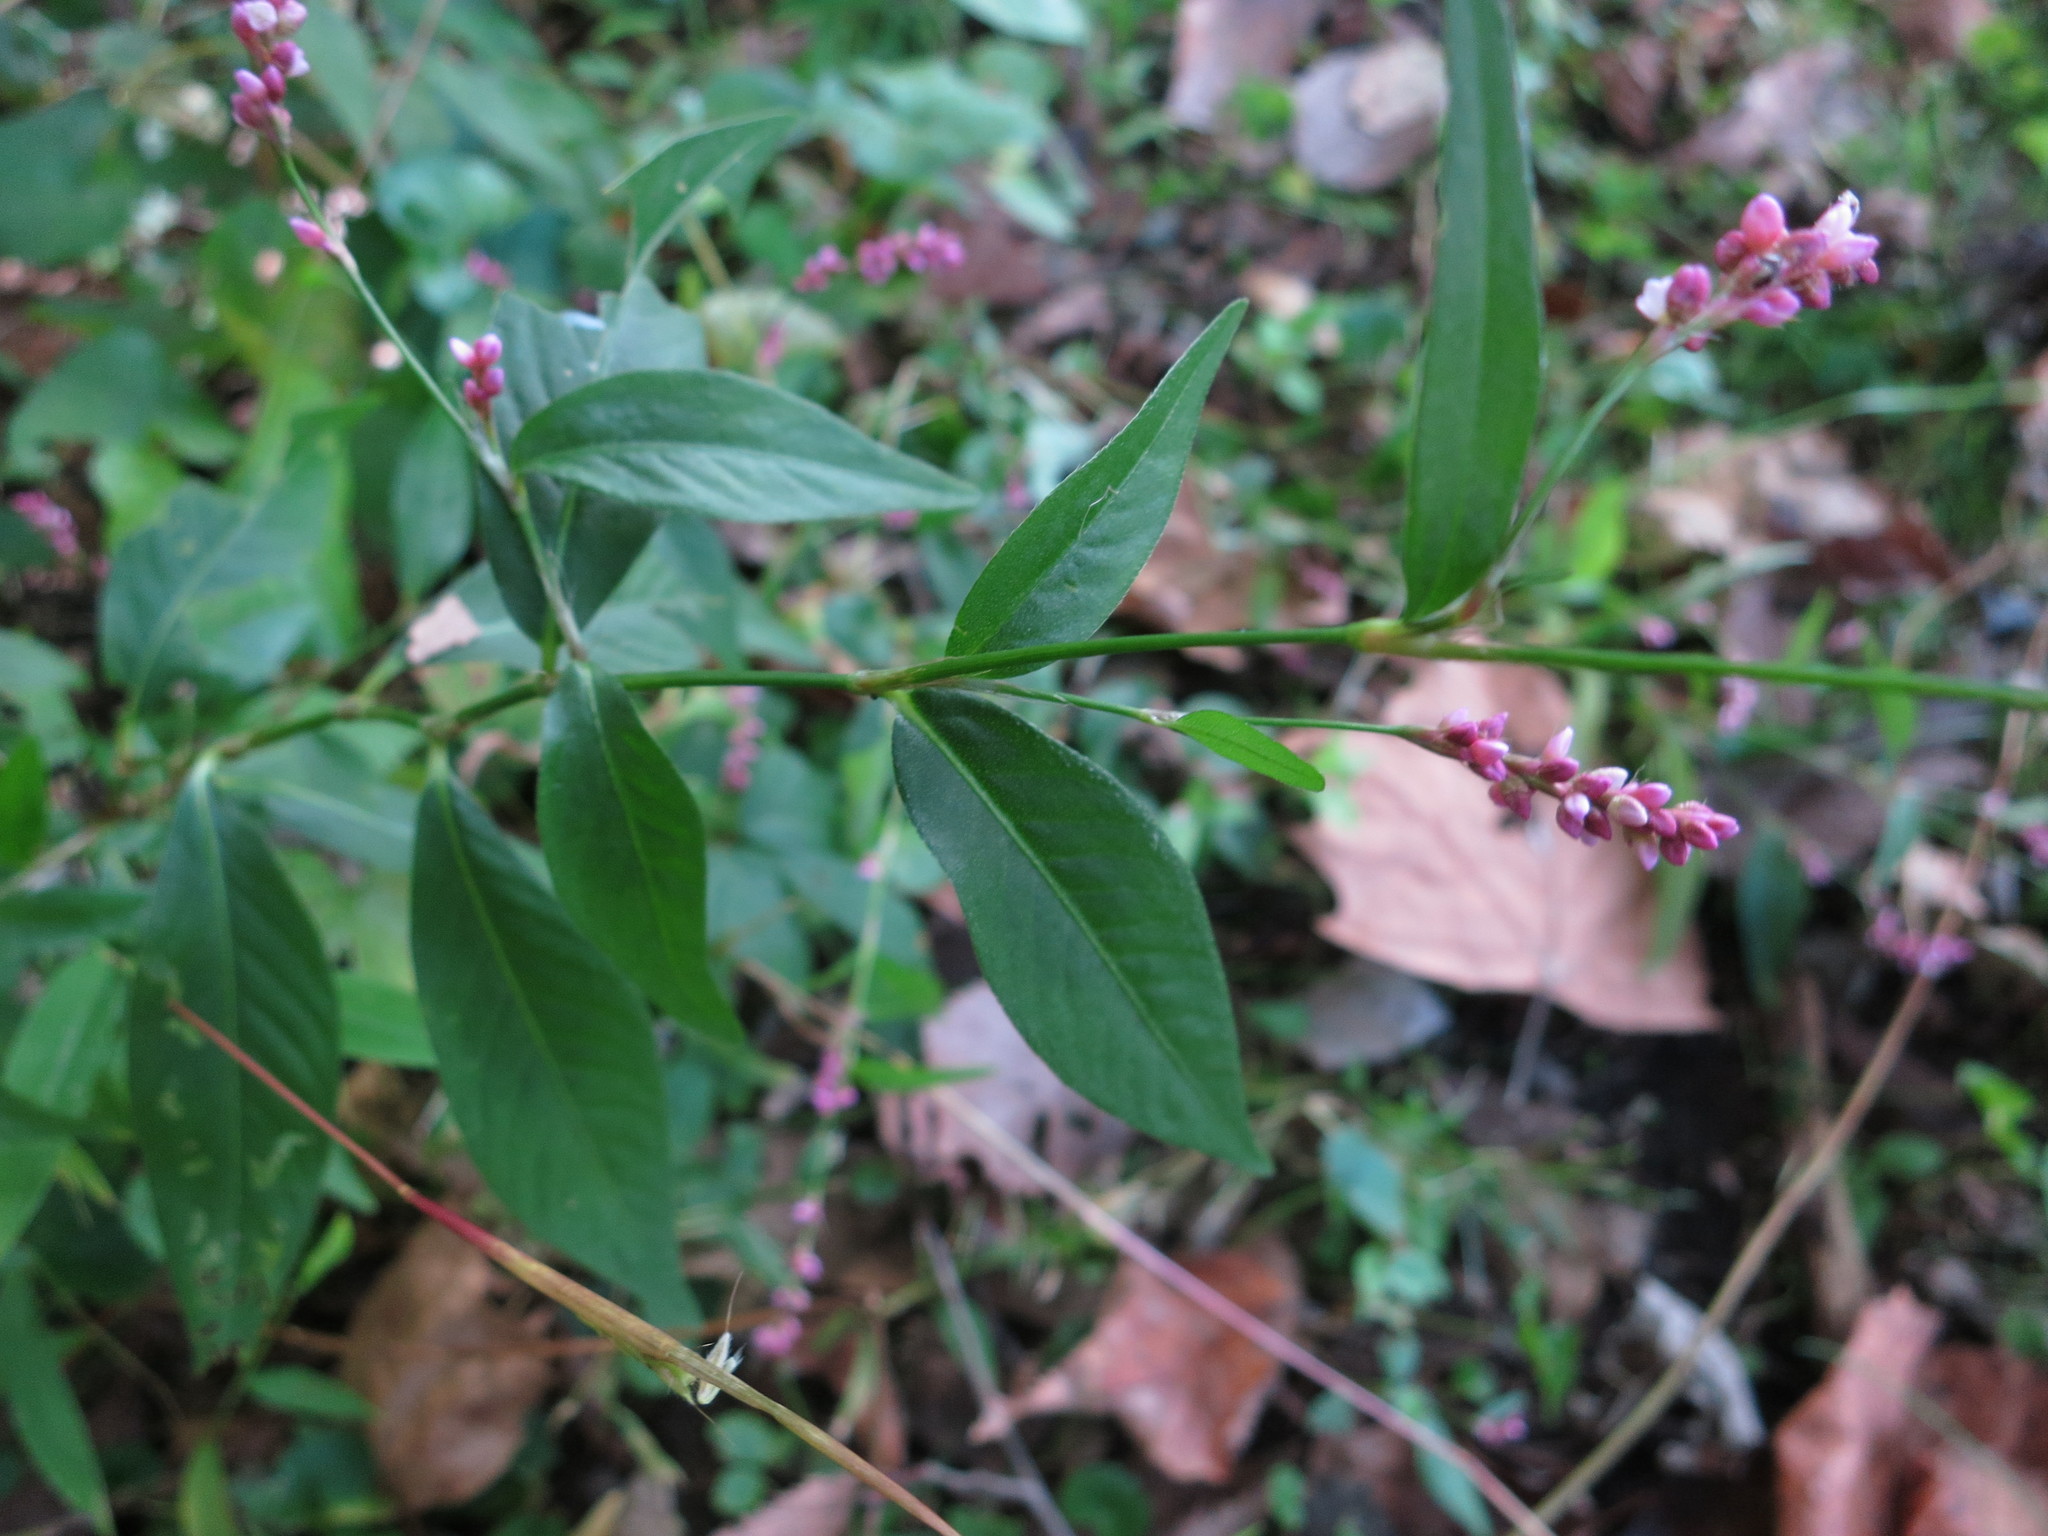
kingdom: Plantae
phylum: Tracheophyta
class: Magnoliopsida
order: Caryophyllales
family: Polygonaceae
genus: Persicaria
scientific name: Persicaria longiseta
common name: Bristly lady's-thumb
